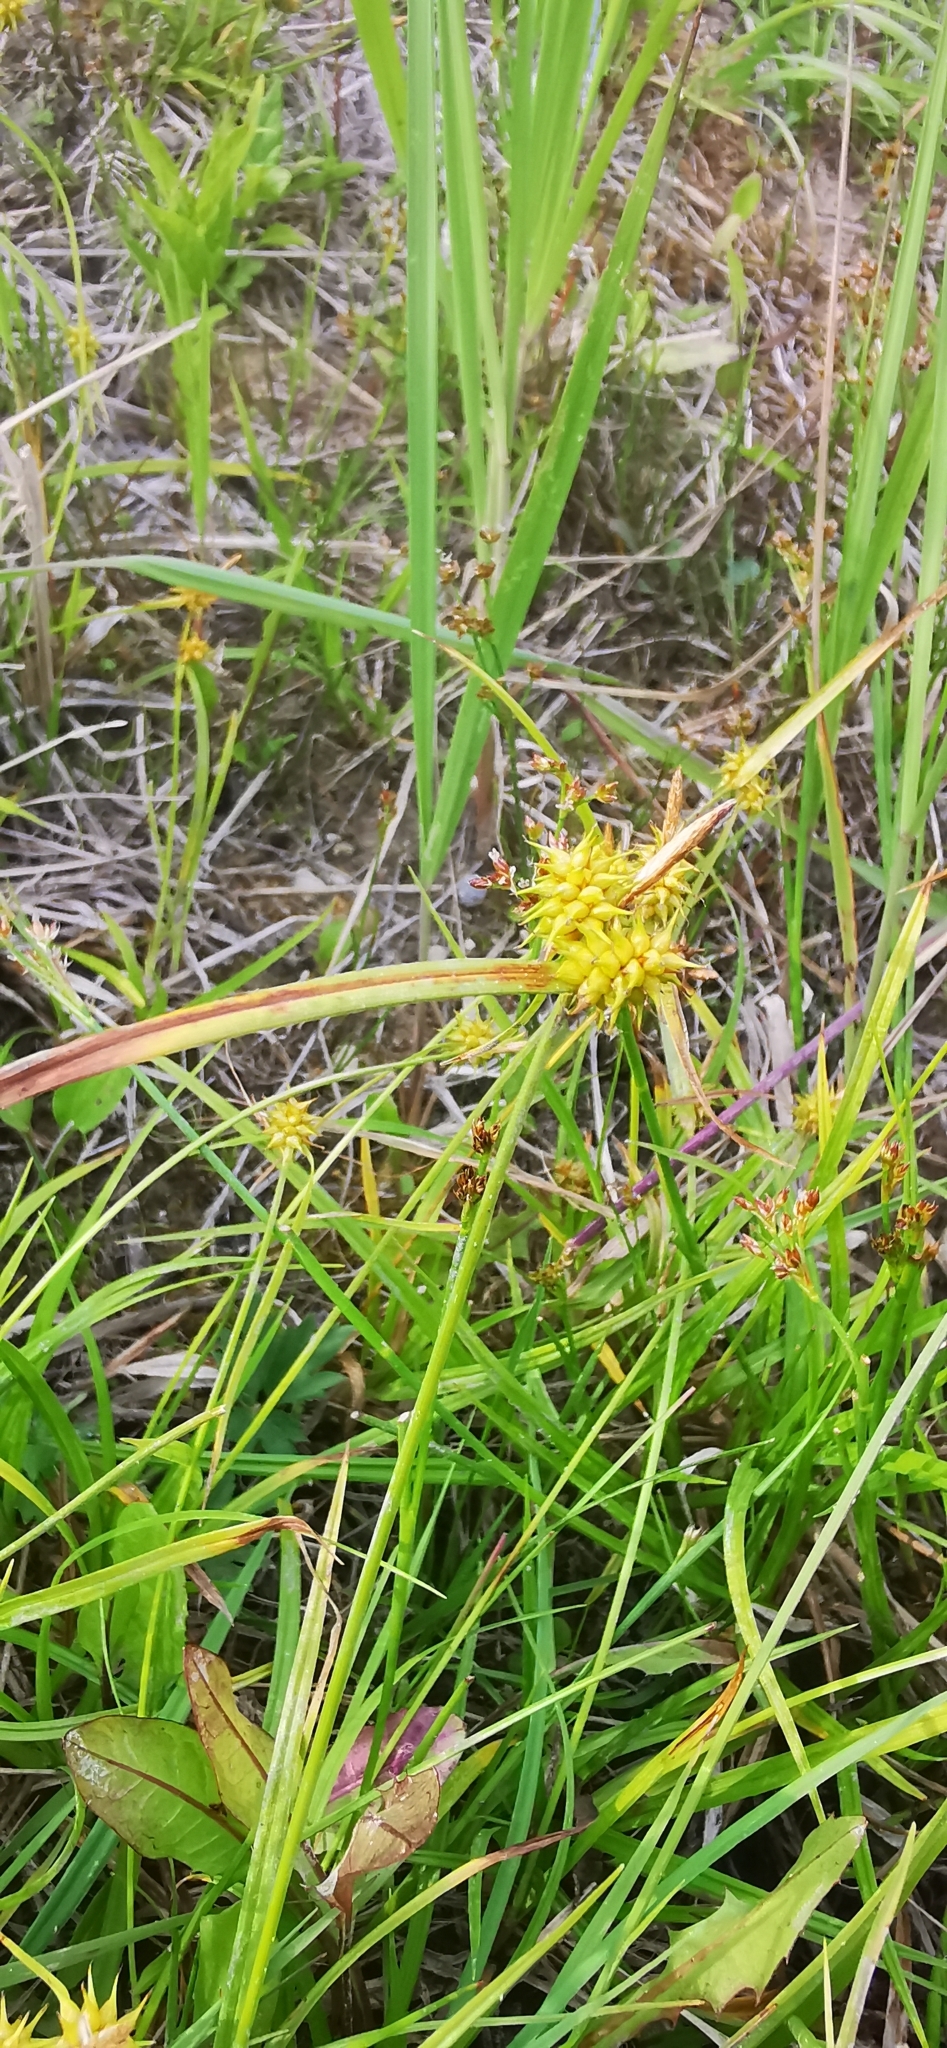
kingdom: Plantae
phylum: Tracheophyta
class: Liliopsida
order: Poales
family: Cyperaceae
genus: Carex
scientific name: Carex flava
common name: Large yellow-sedge
